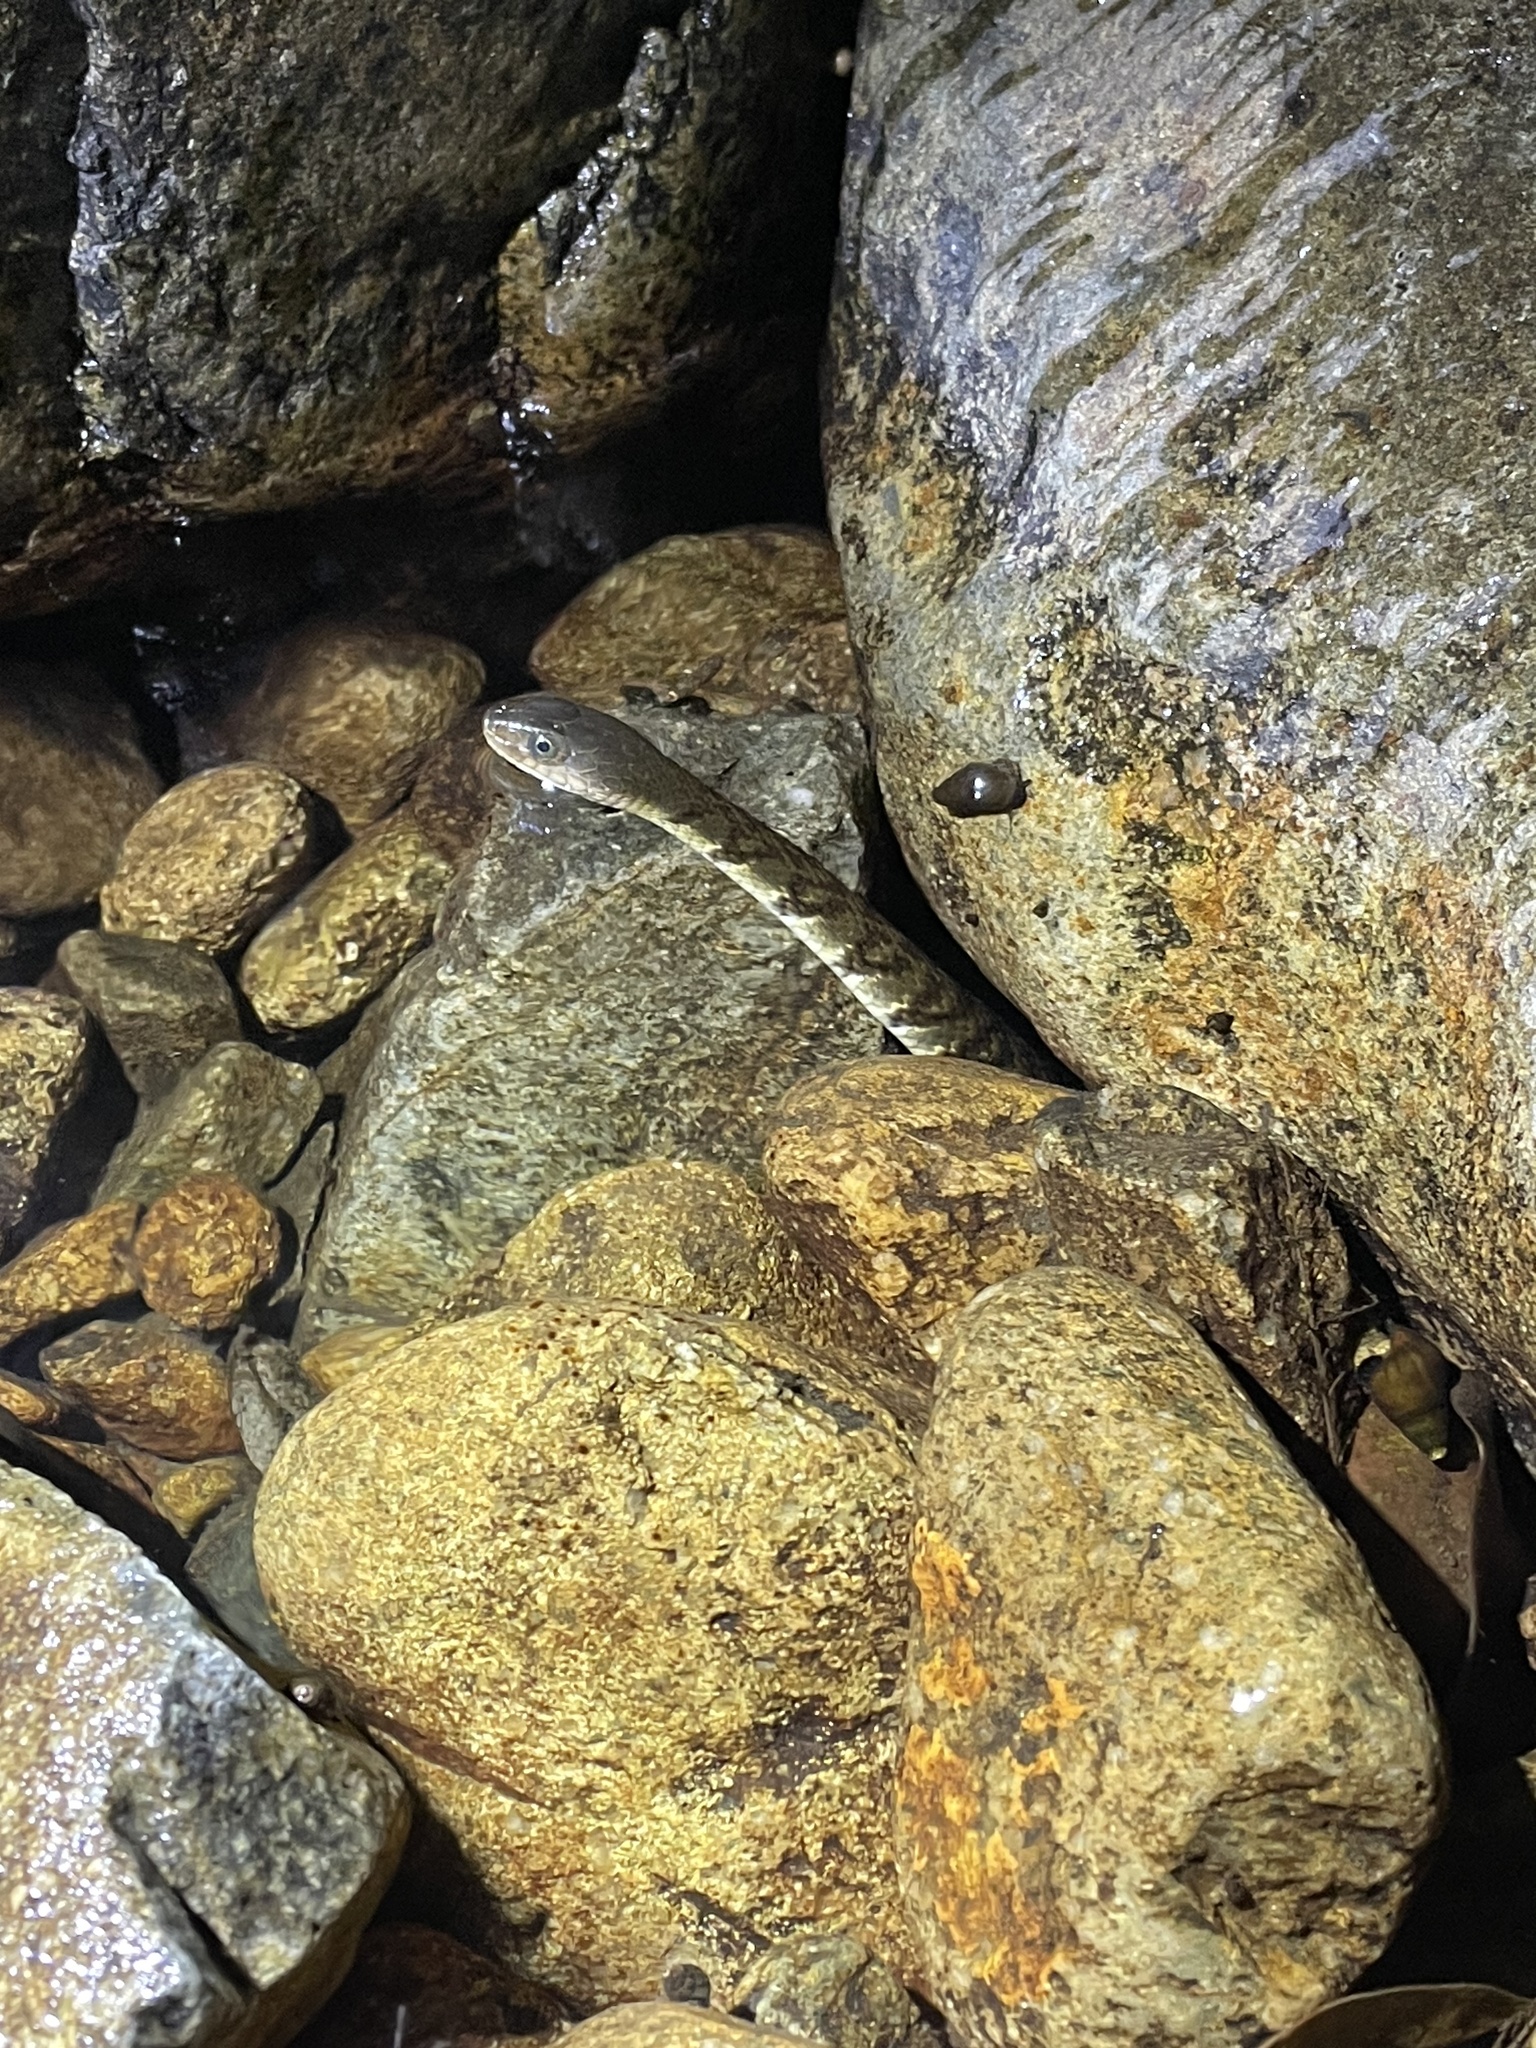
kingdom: Animalia
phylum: Chordata
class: Squamata
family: Colubridae
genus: Trimerodytes
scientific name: Trimerodytes percarinatus
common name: Eastern water snake
